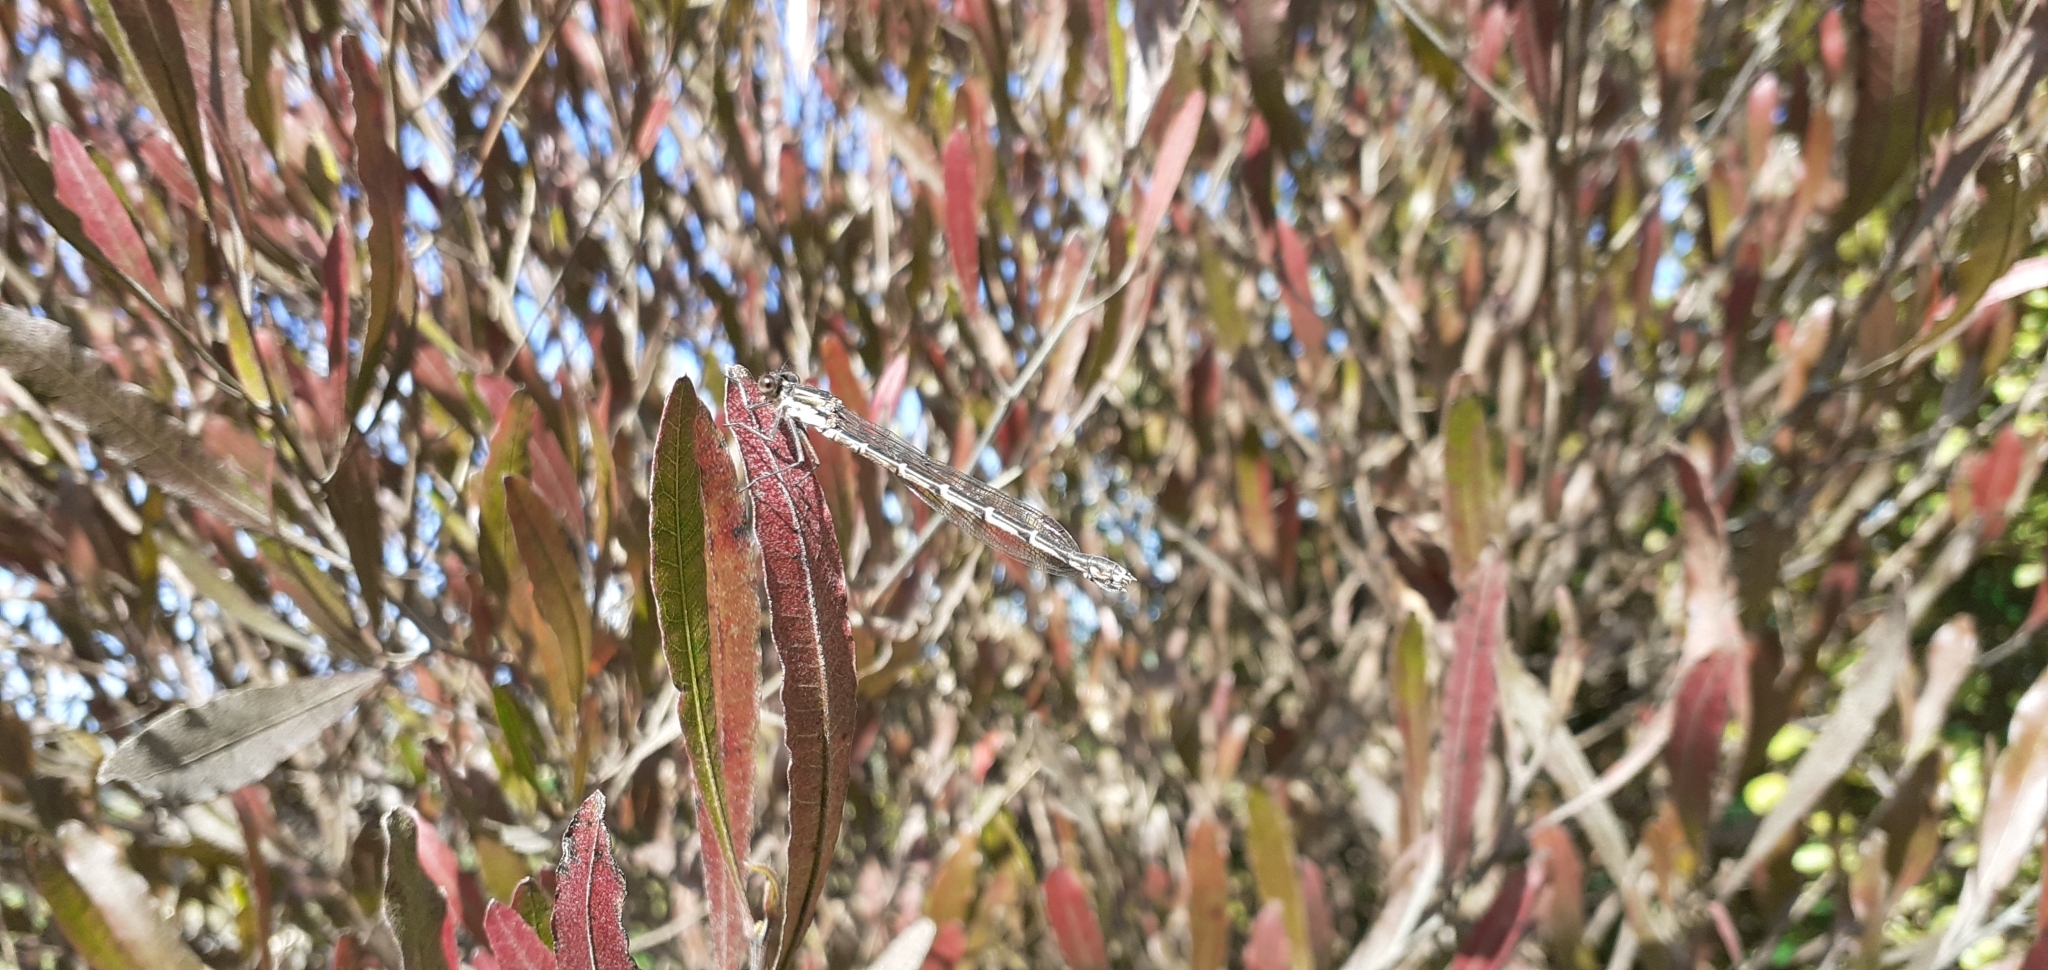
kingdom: Animalia
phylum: Arthropoda
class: Insecta
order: Odonata
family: Lestidae
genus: Austrolestes
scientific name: Austrolestes colensonis
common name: Blue damselfly
